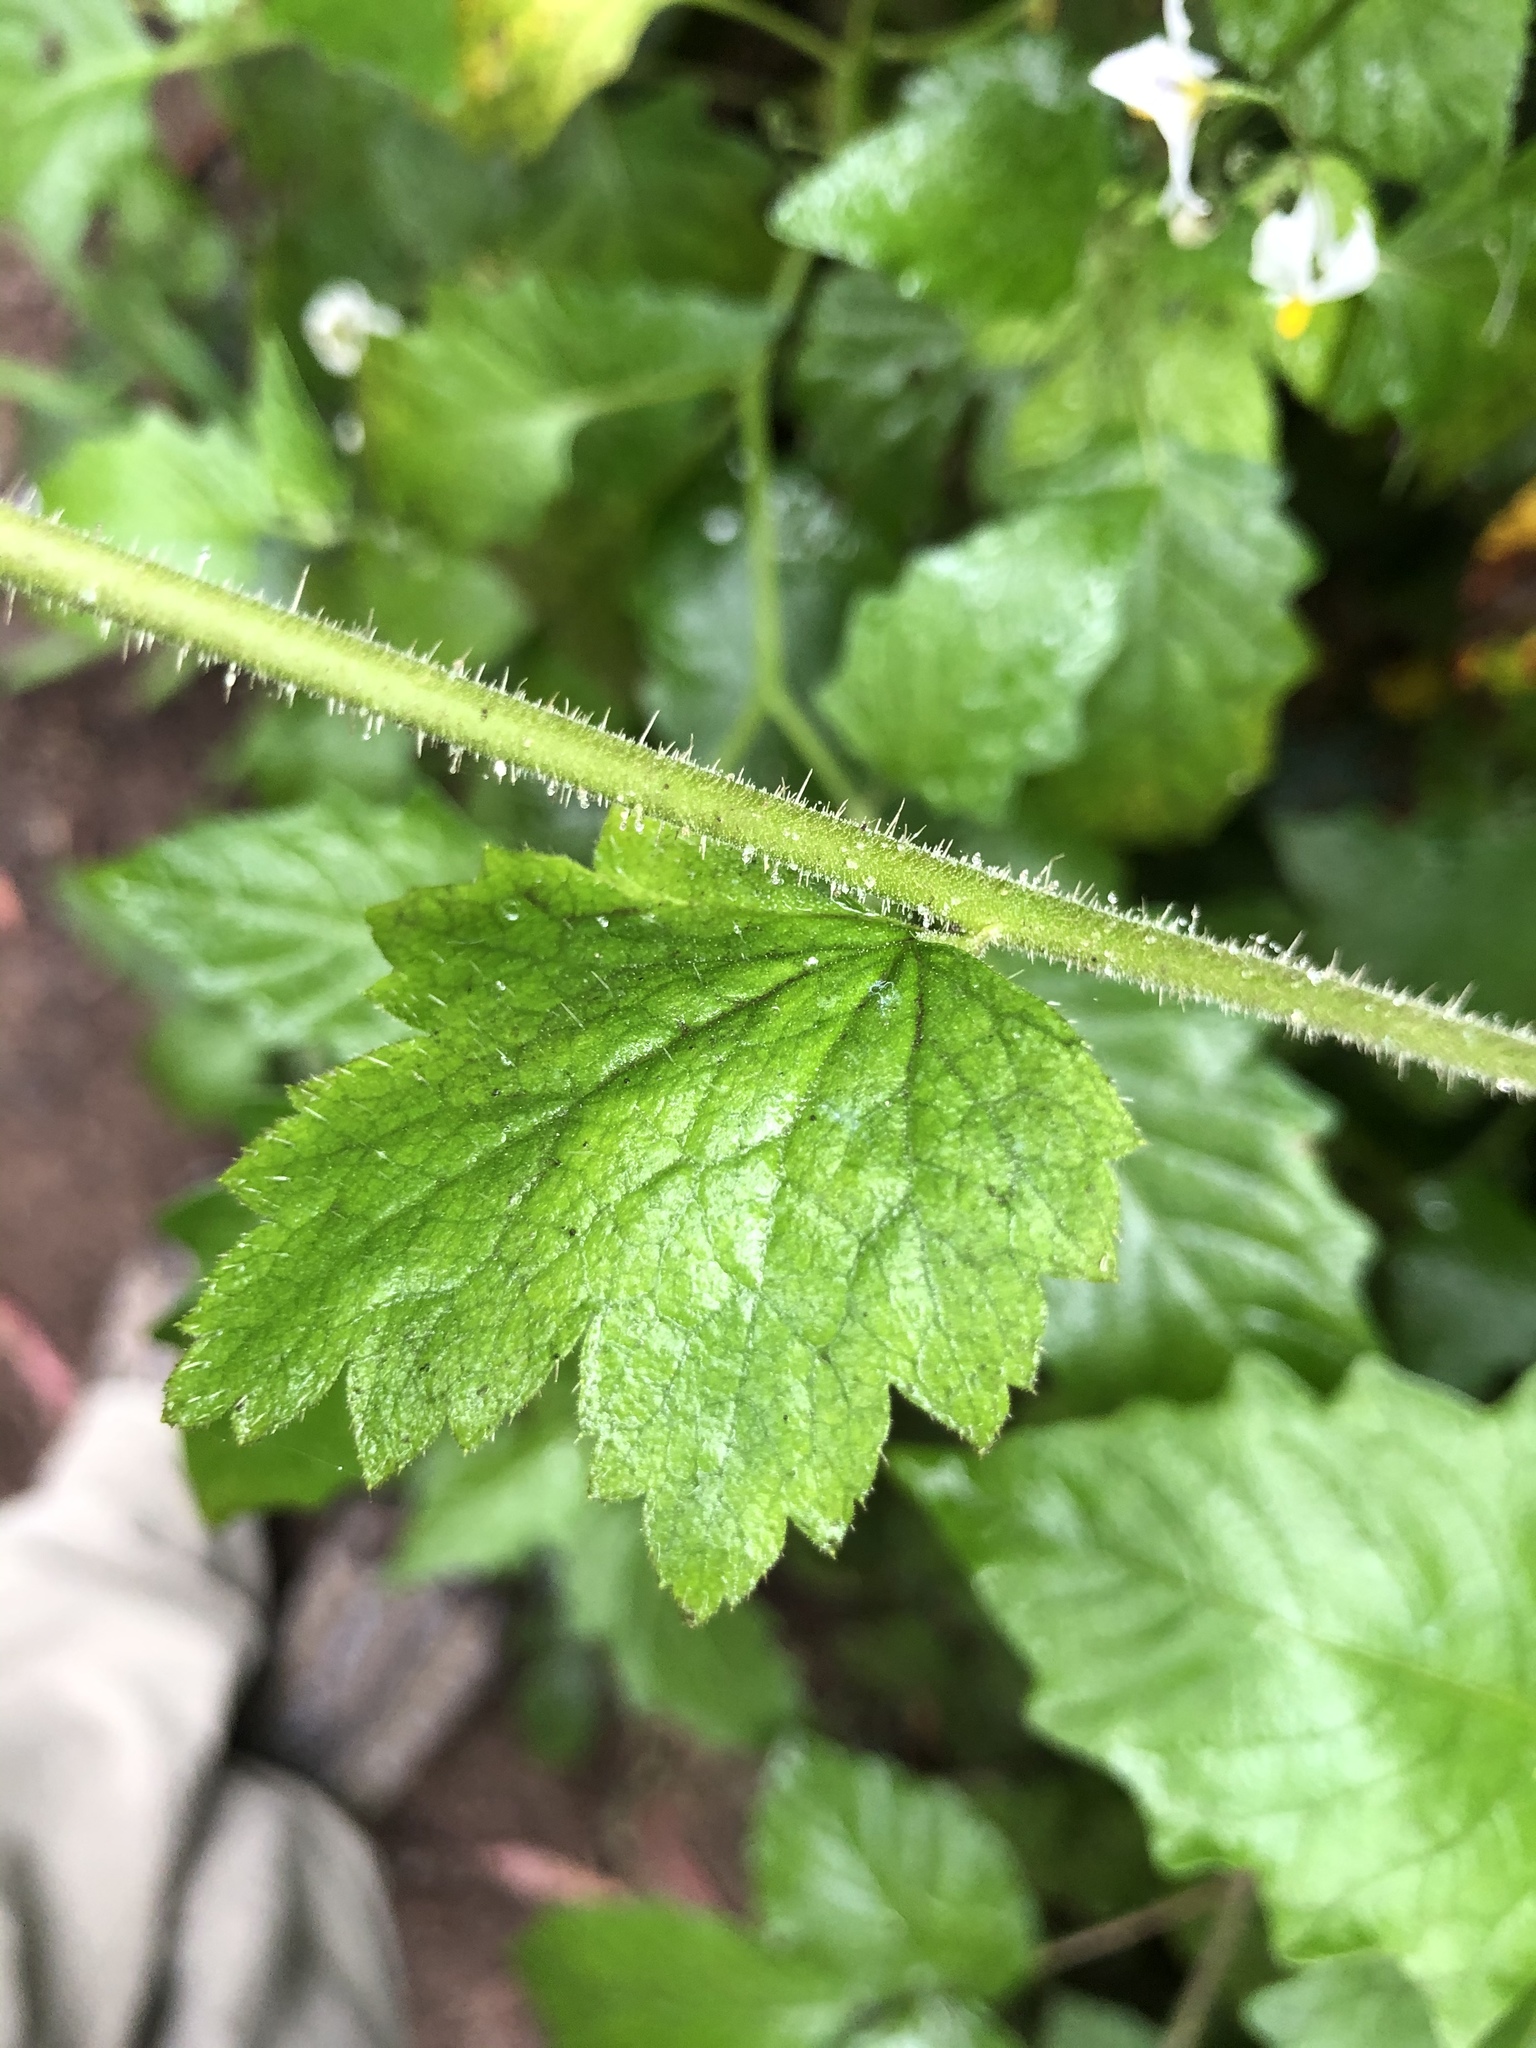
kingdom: Plantae
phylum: Tracheophyta
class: Magnoliopsida
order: Saxifragales
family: Saxifragaceae
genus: Tellima
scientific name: Tellima grandiflora
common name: Fringecups
